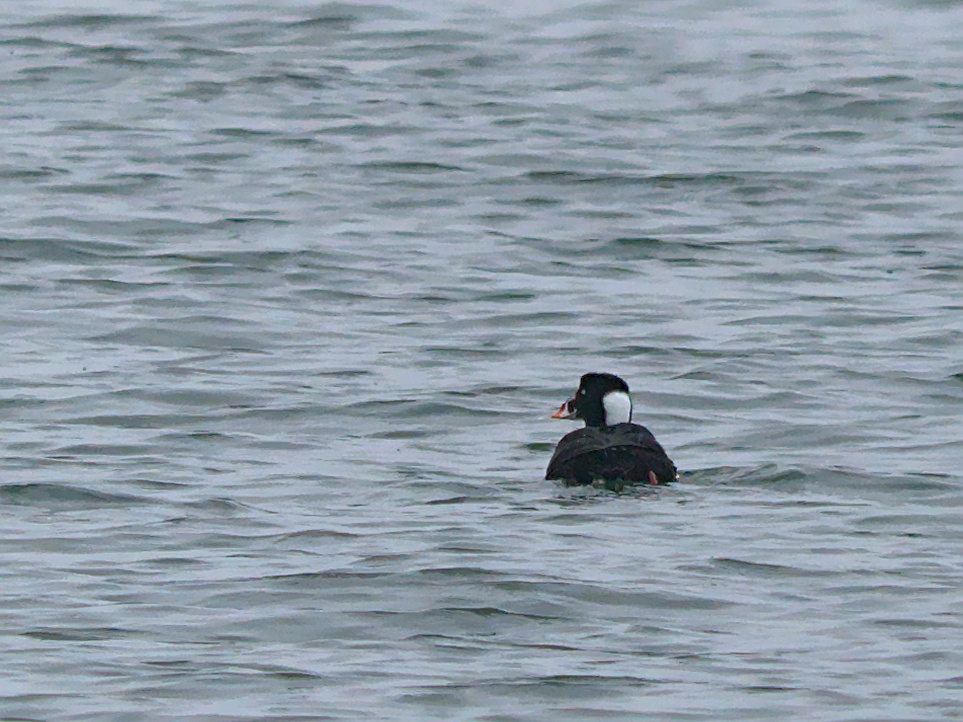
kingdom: Animalia
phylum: Chordata
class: Aves
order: Anseriformes
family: Anatidae
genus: Melanitta
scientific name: Melanitta perspicillata
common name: Surf scoter
